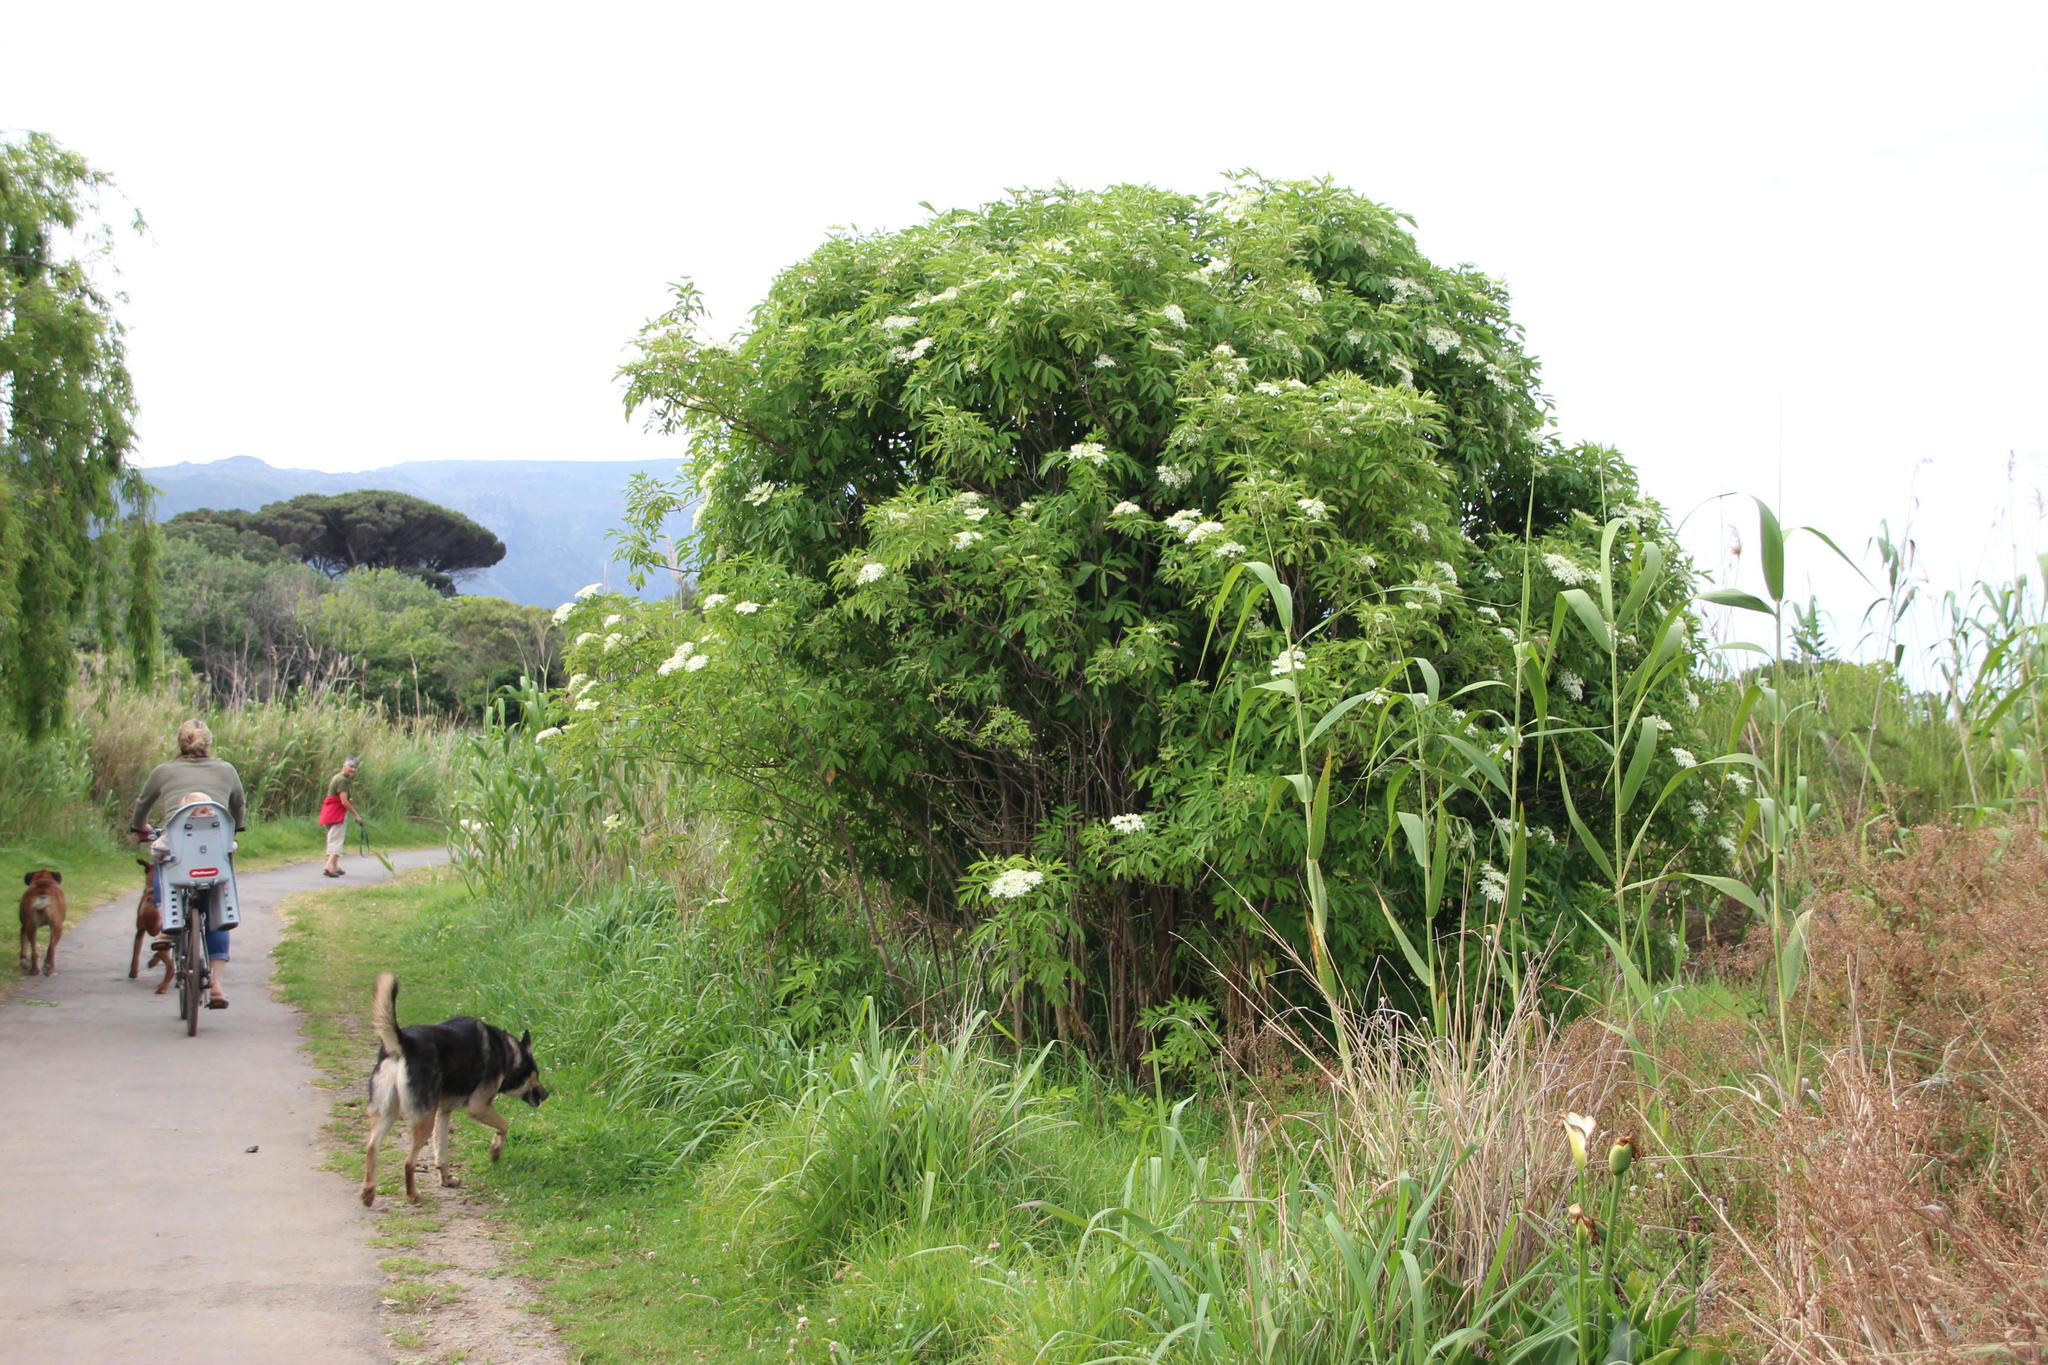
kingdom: Plantae
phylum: Tracheophyta
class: Magnoliopsida
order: Dipsacales
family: Viburnaceae
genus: Sambucus
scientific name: Sambucus nigra
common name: Elder
